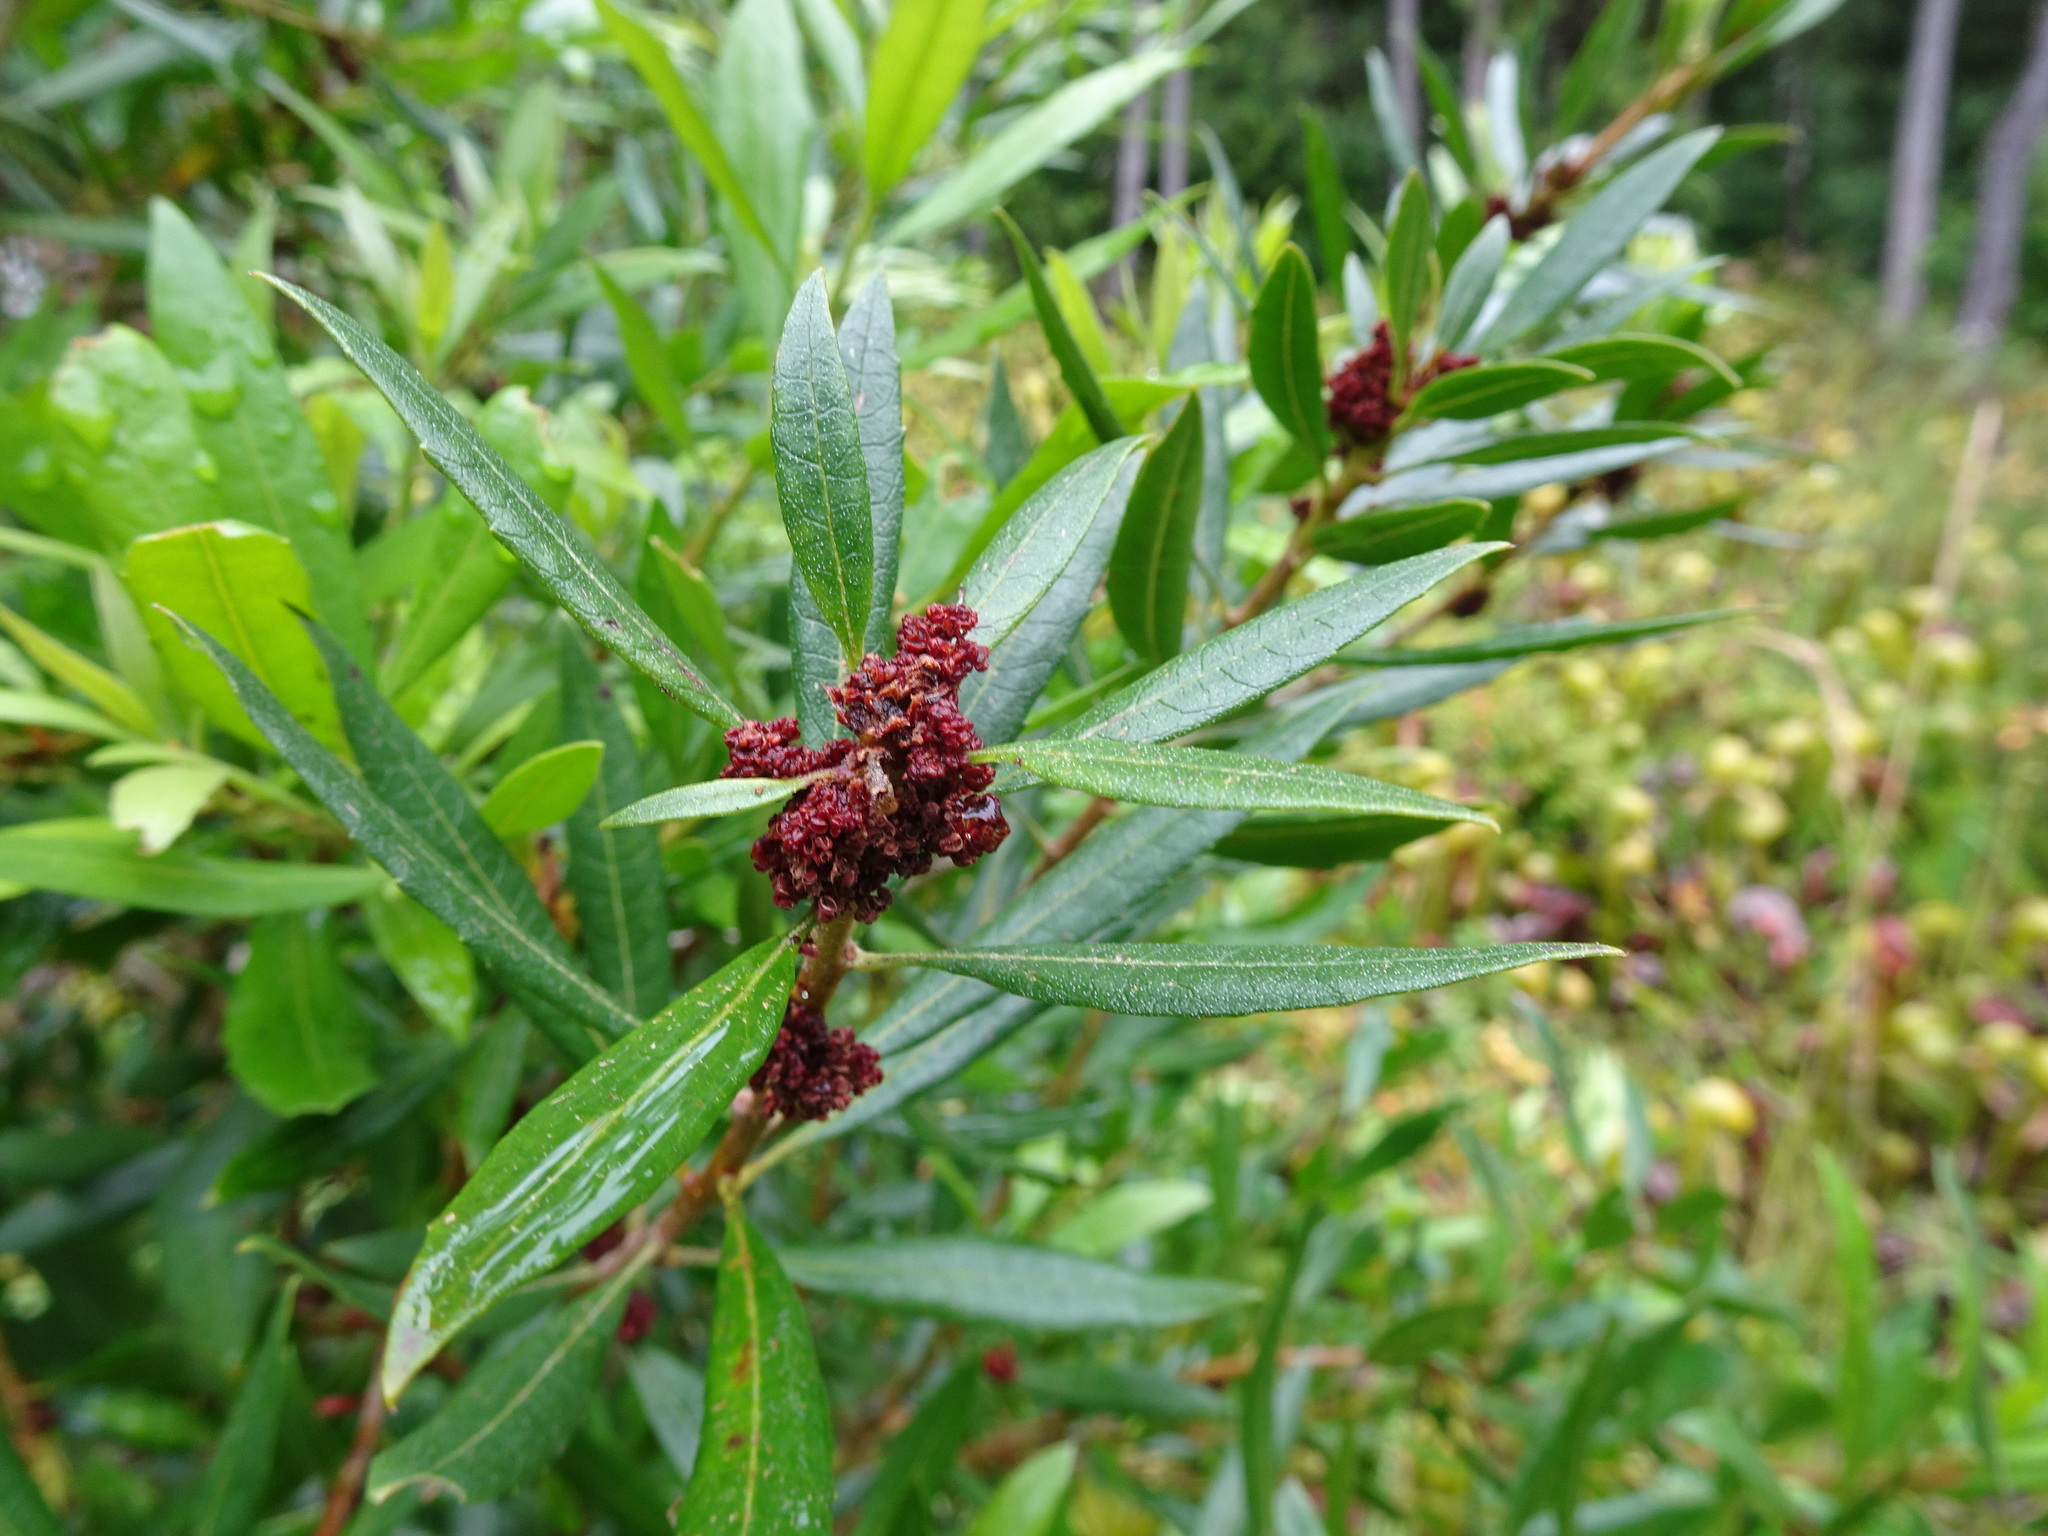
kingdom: Plantae
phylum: Tracheophyta
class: Magnoliopsida
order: Fagales
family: Myricaceae
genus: Morella
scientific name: Morella californica
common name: California wax-myrtle
